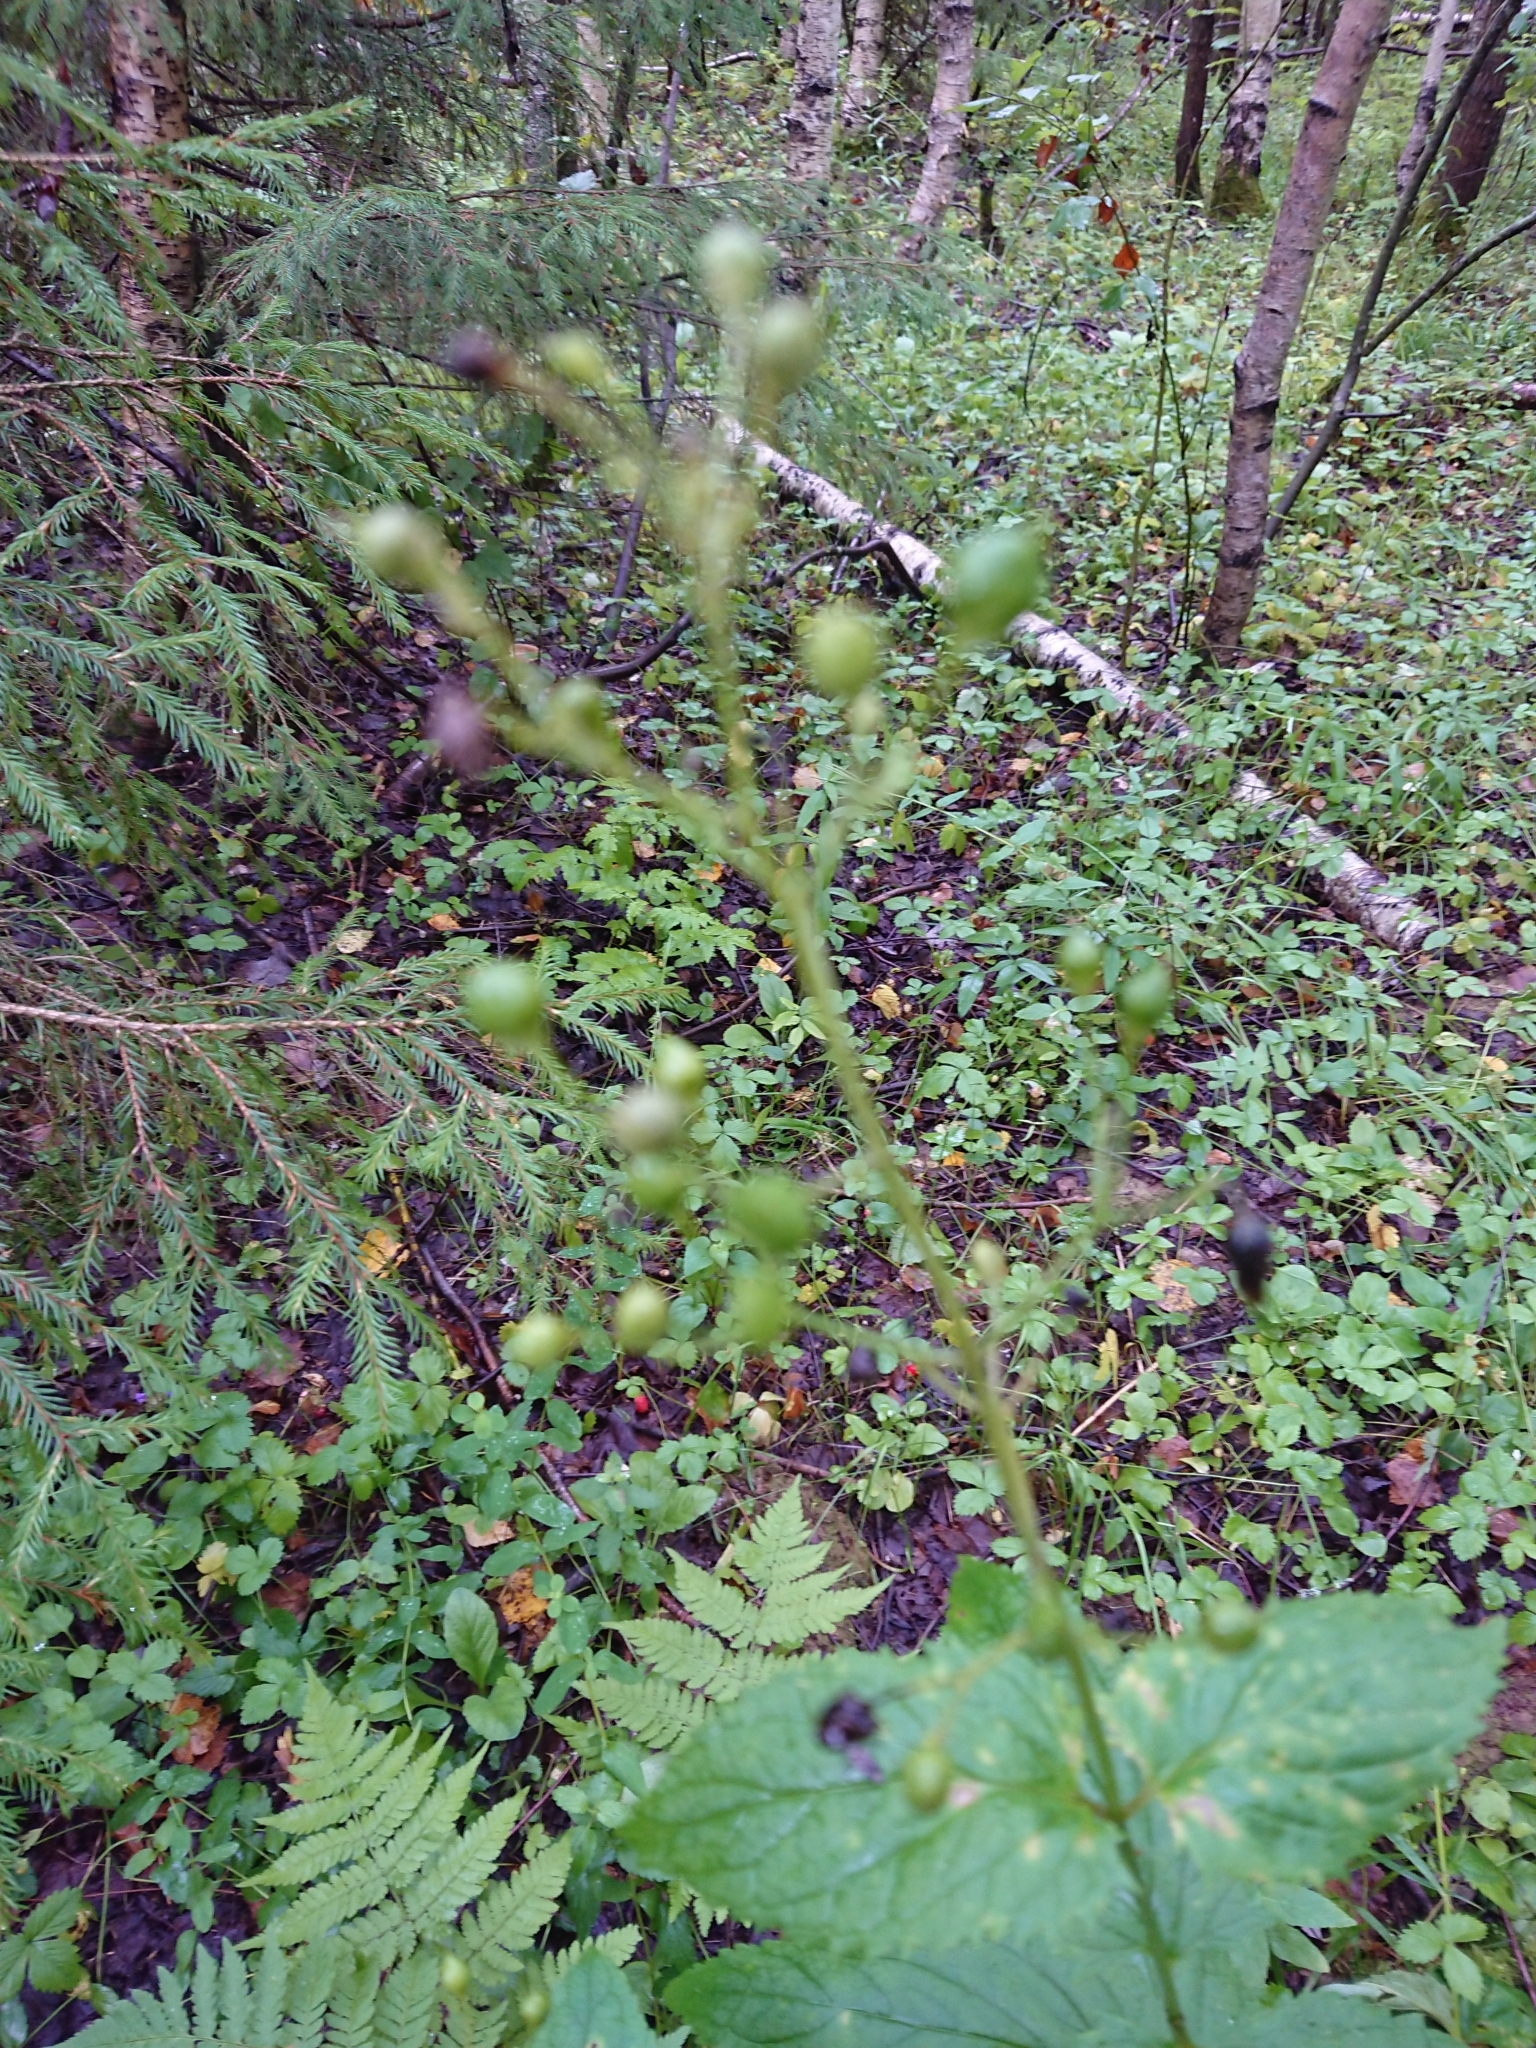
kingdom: Plantae
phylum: Tracheophyta
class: Magnoliopsida
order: Lamiales
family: Scrophulariaceae
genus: Scrophularia
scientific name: Scrophularia nodosa
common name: Common figwort
